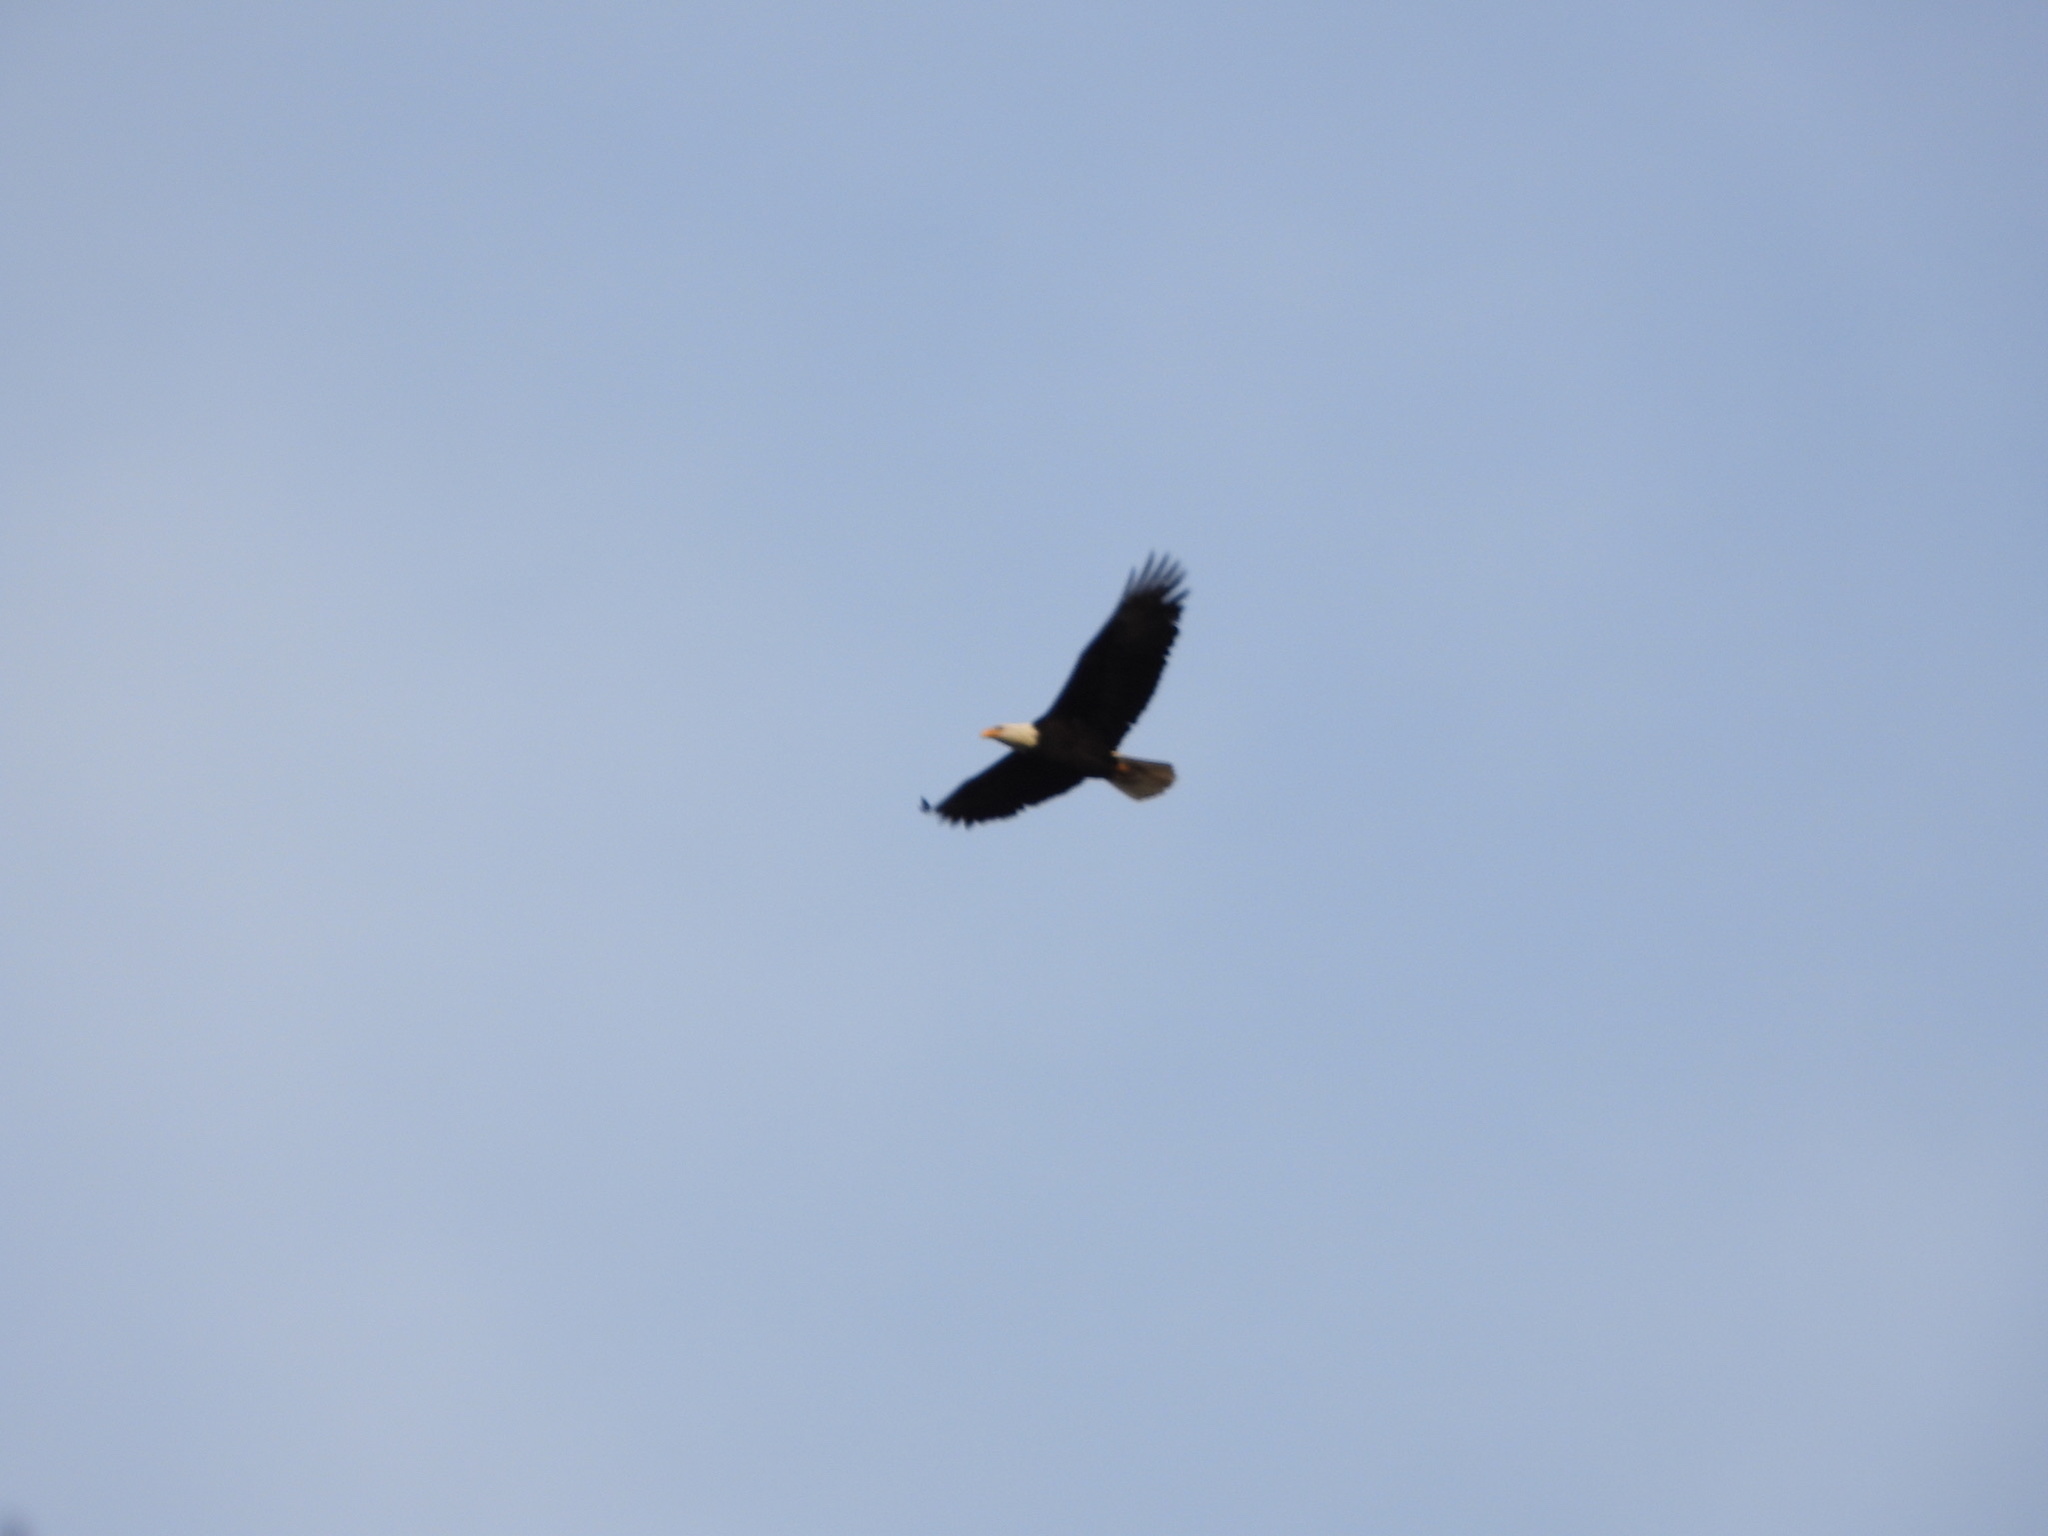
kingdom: Animalia
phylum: Chordata
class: Aves
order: Accipitriformes
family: Accipitridae
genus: Haliaeetus
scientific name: Haliaeetus leucocephalus
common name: Bald eagle
